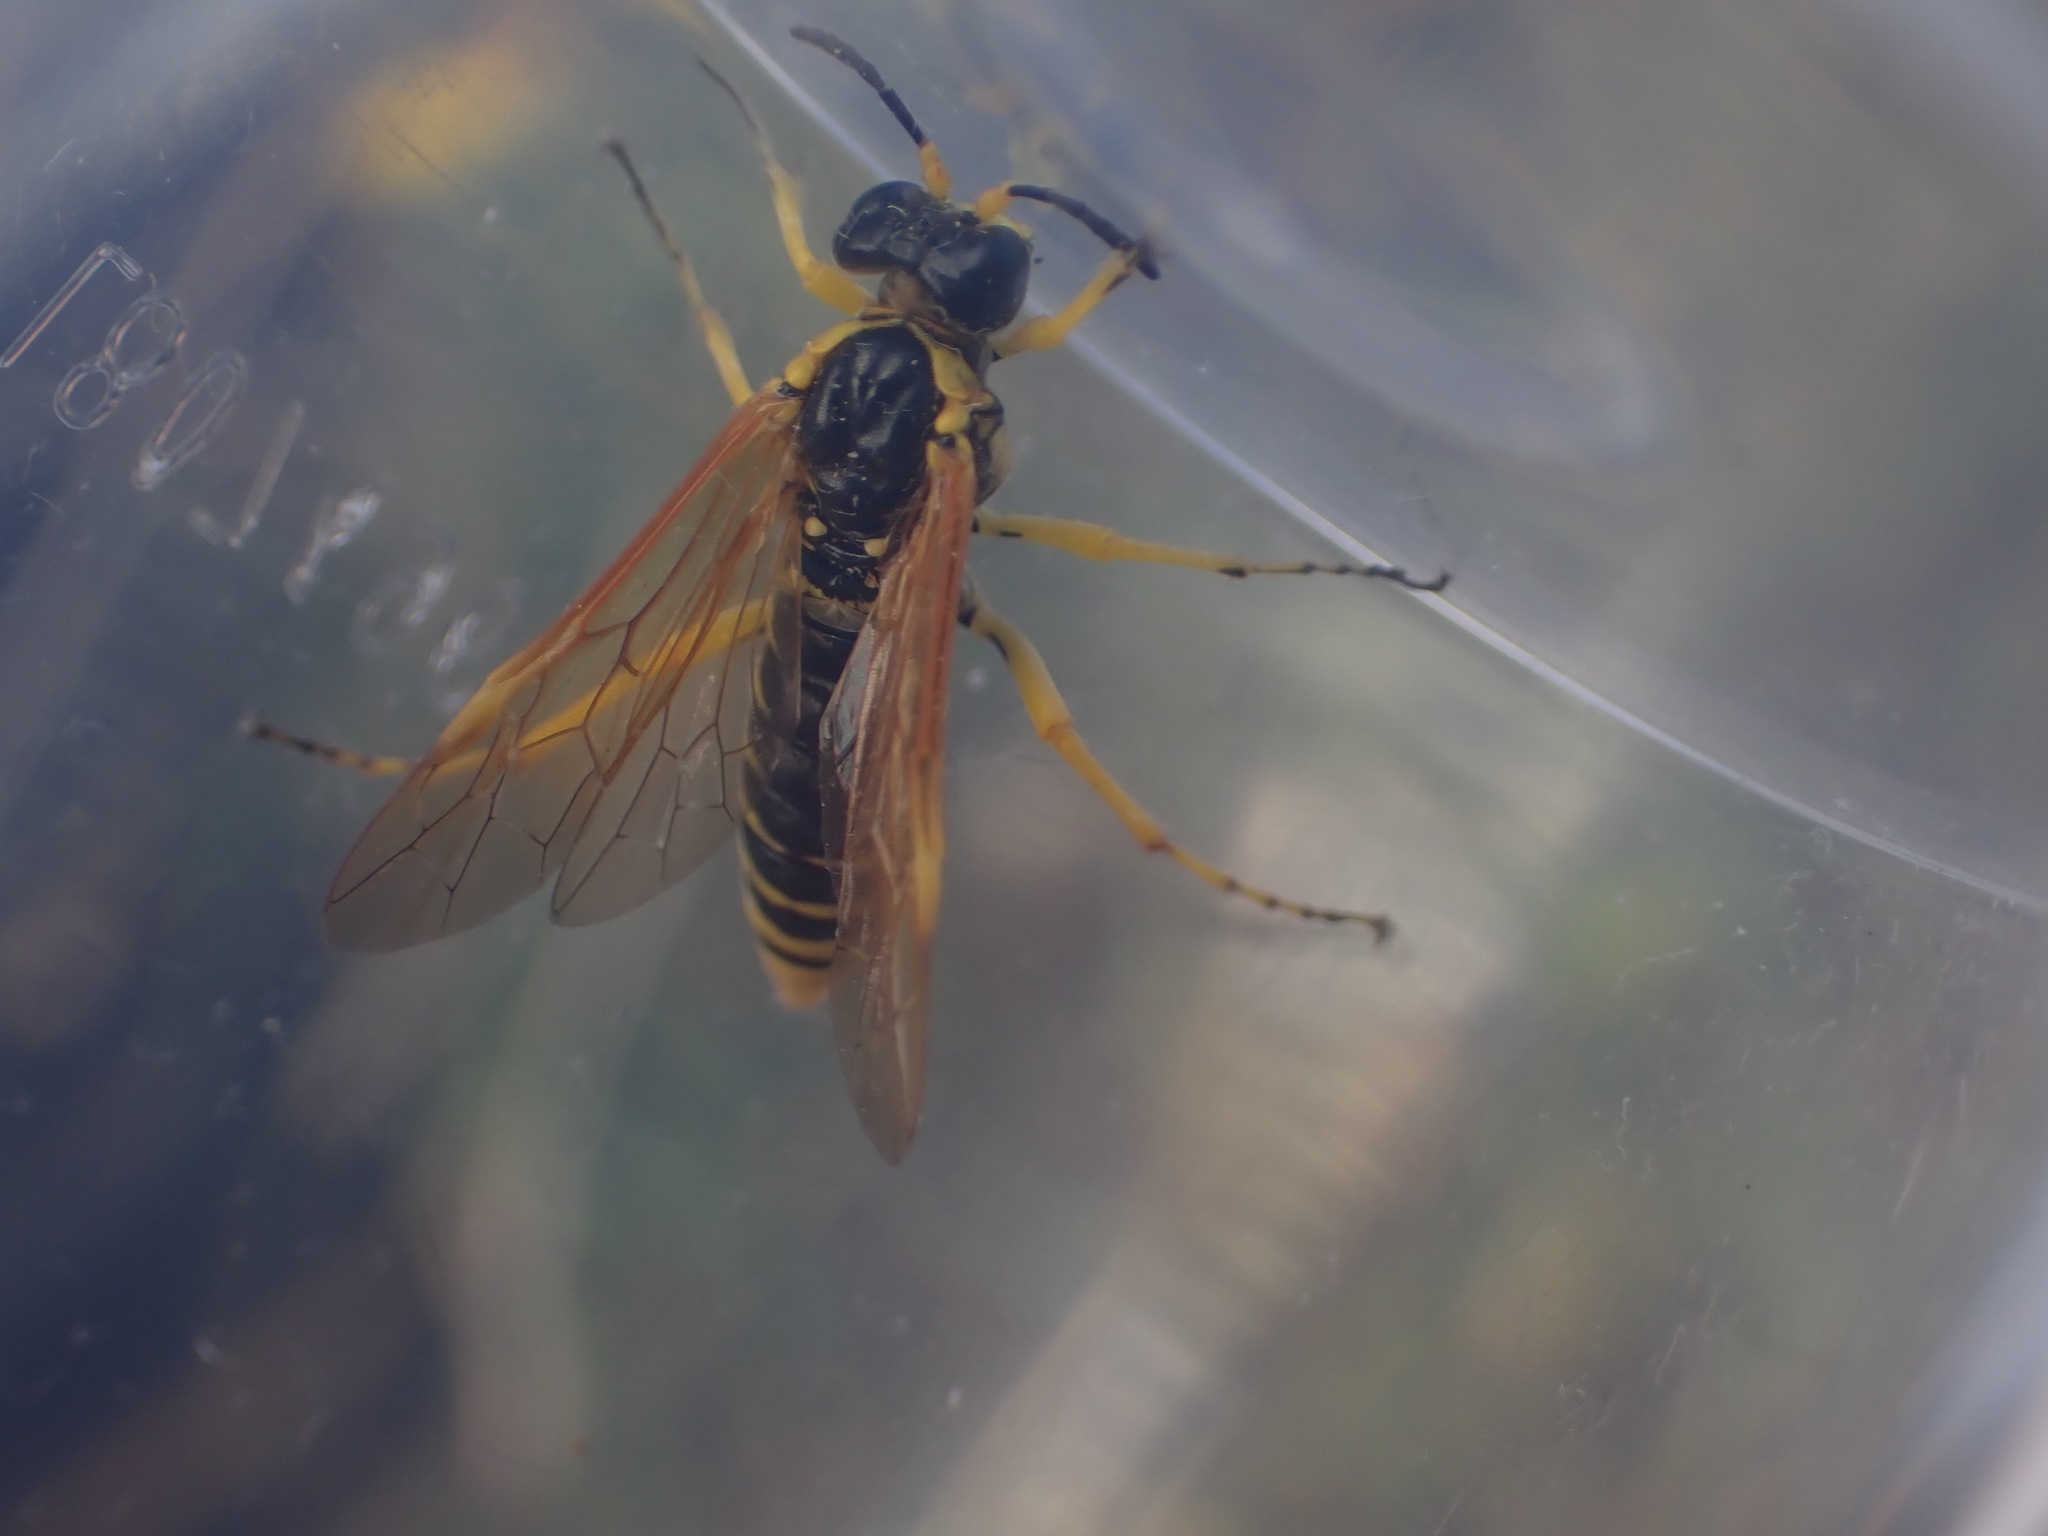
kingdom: Animalia
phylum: Arthropoda
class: Insecta
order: Hymenoptera
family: Tenthredinidae
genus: Tenthredo
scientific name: Tenthredo baetica
